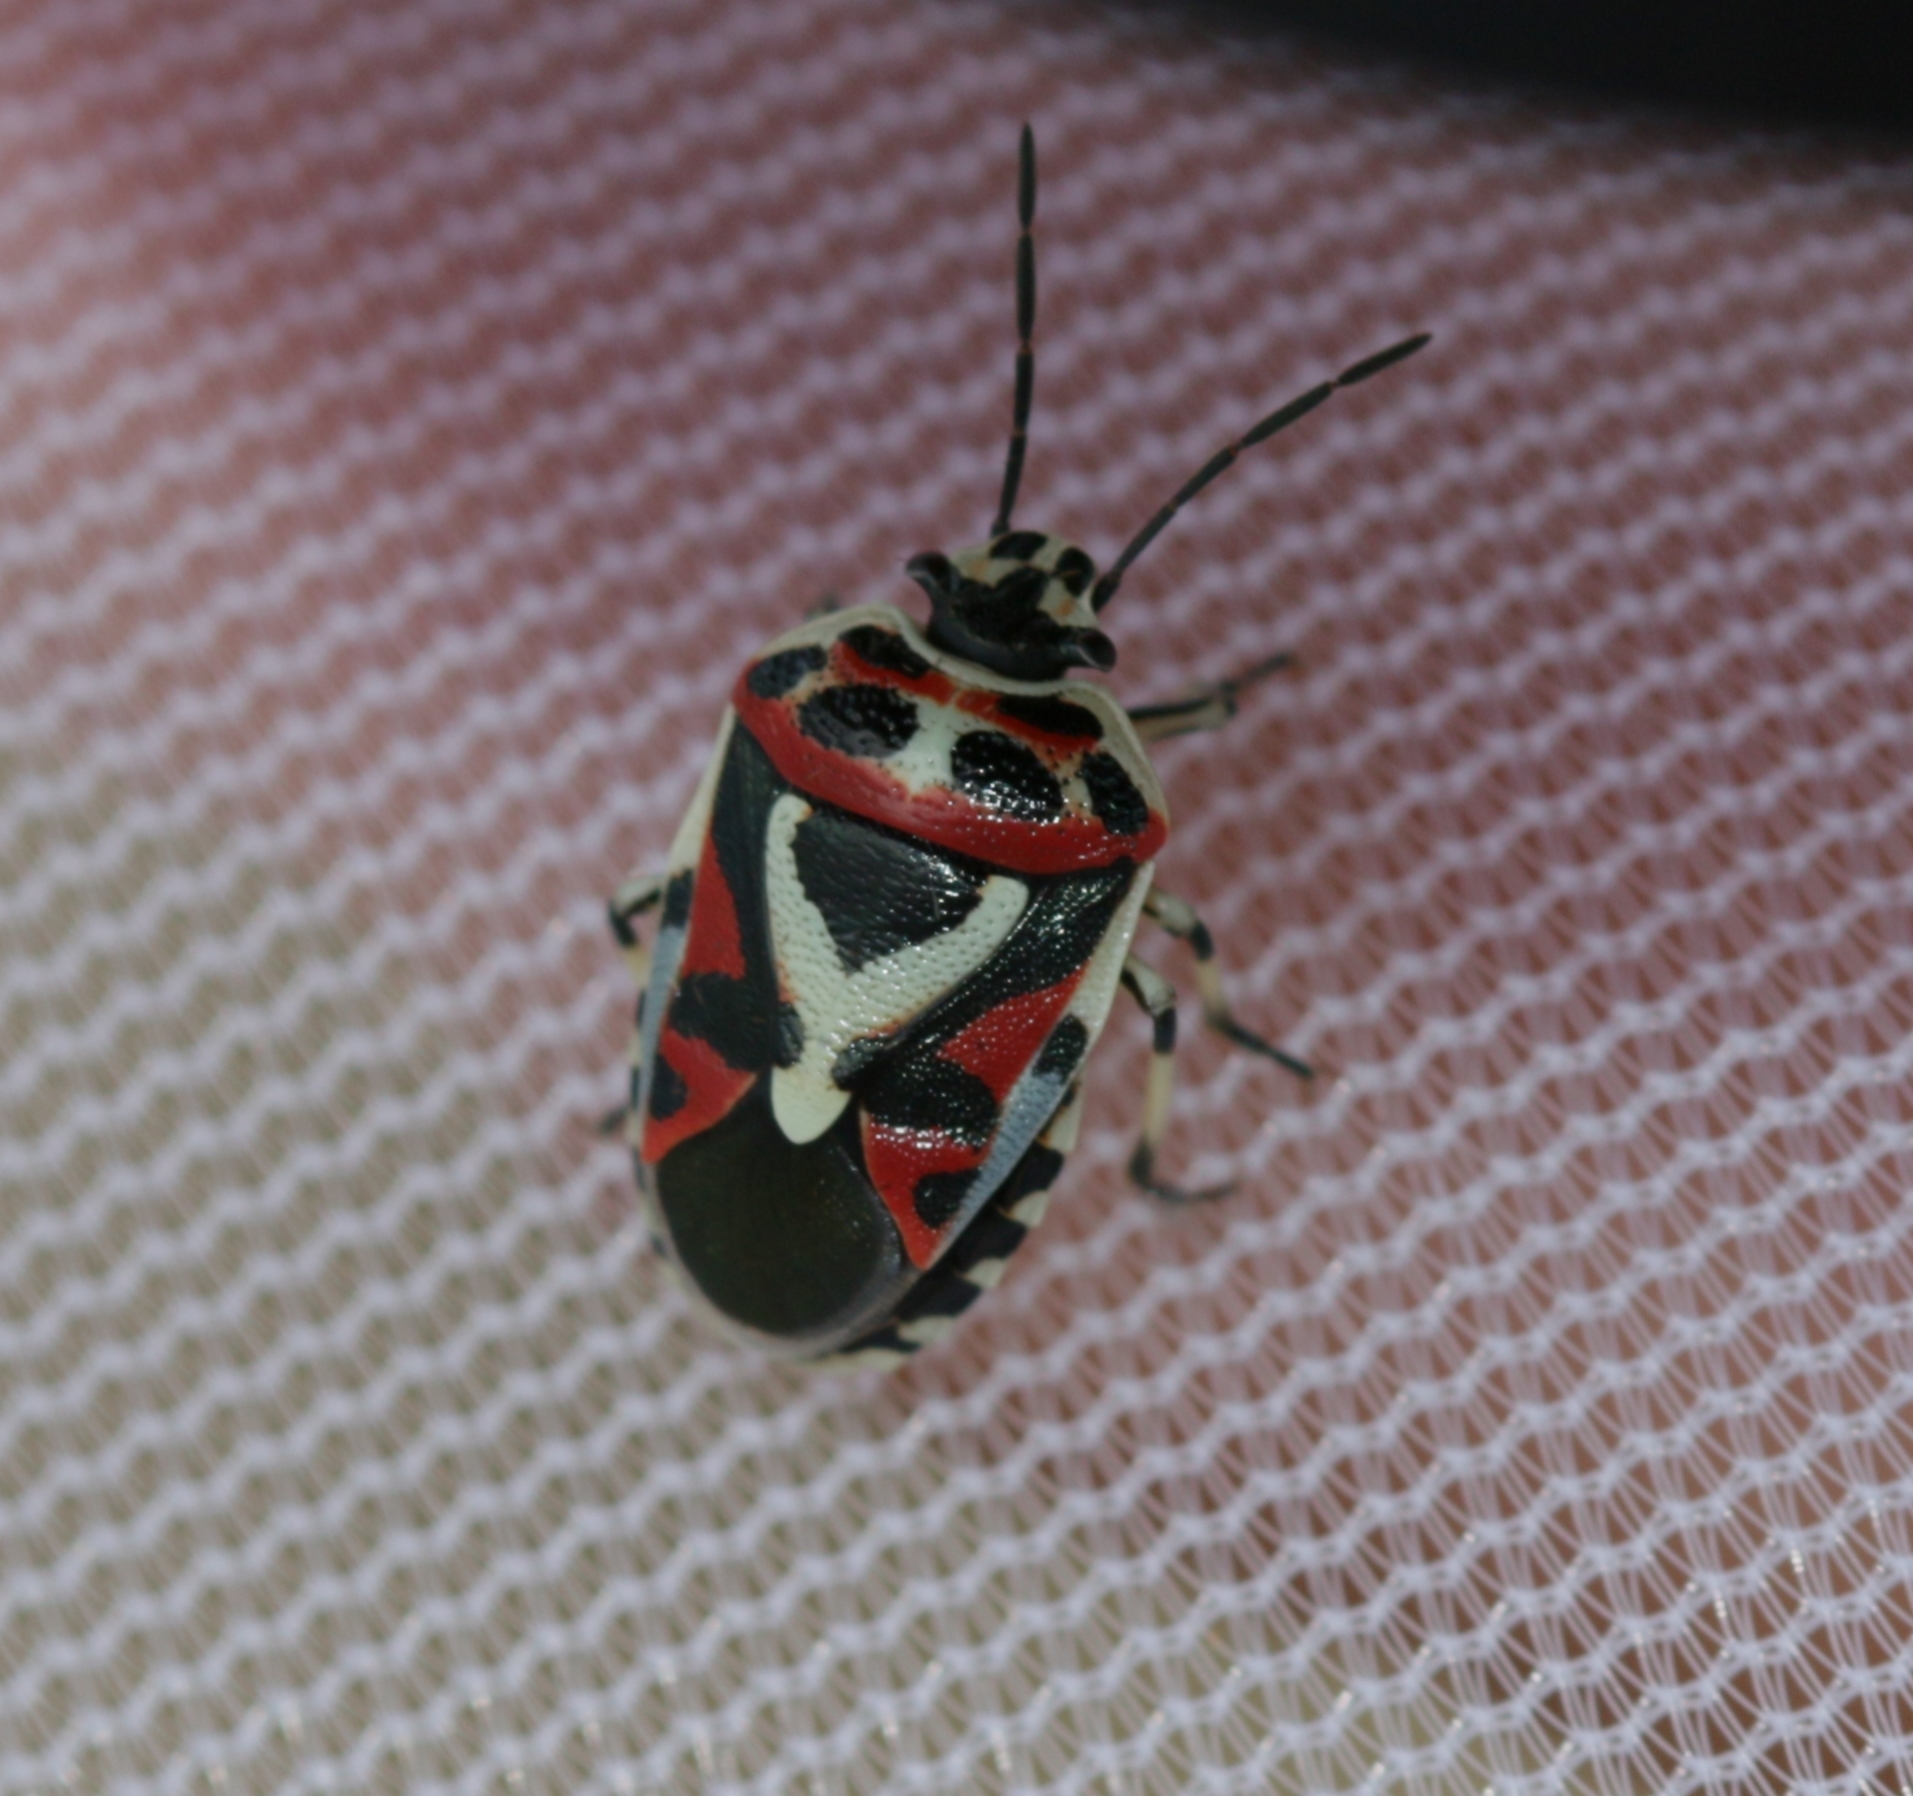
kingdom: Animalia
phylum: Arthropoda
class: Insecta
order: Hemiptera
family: Pentatomidae
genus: Eurydema
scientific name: Eurydema ornata
